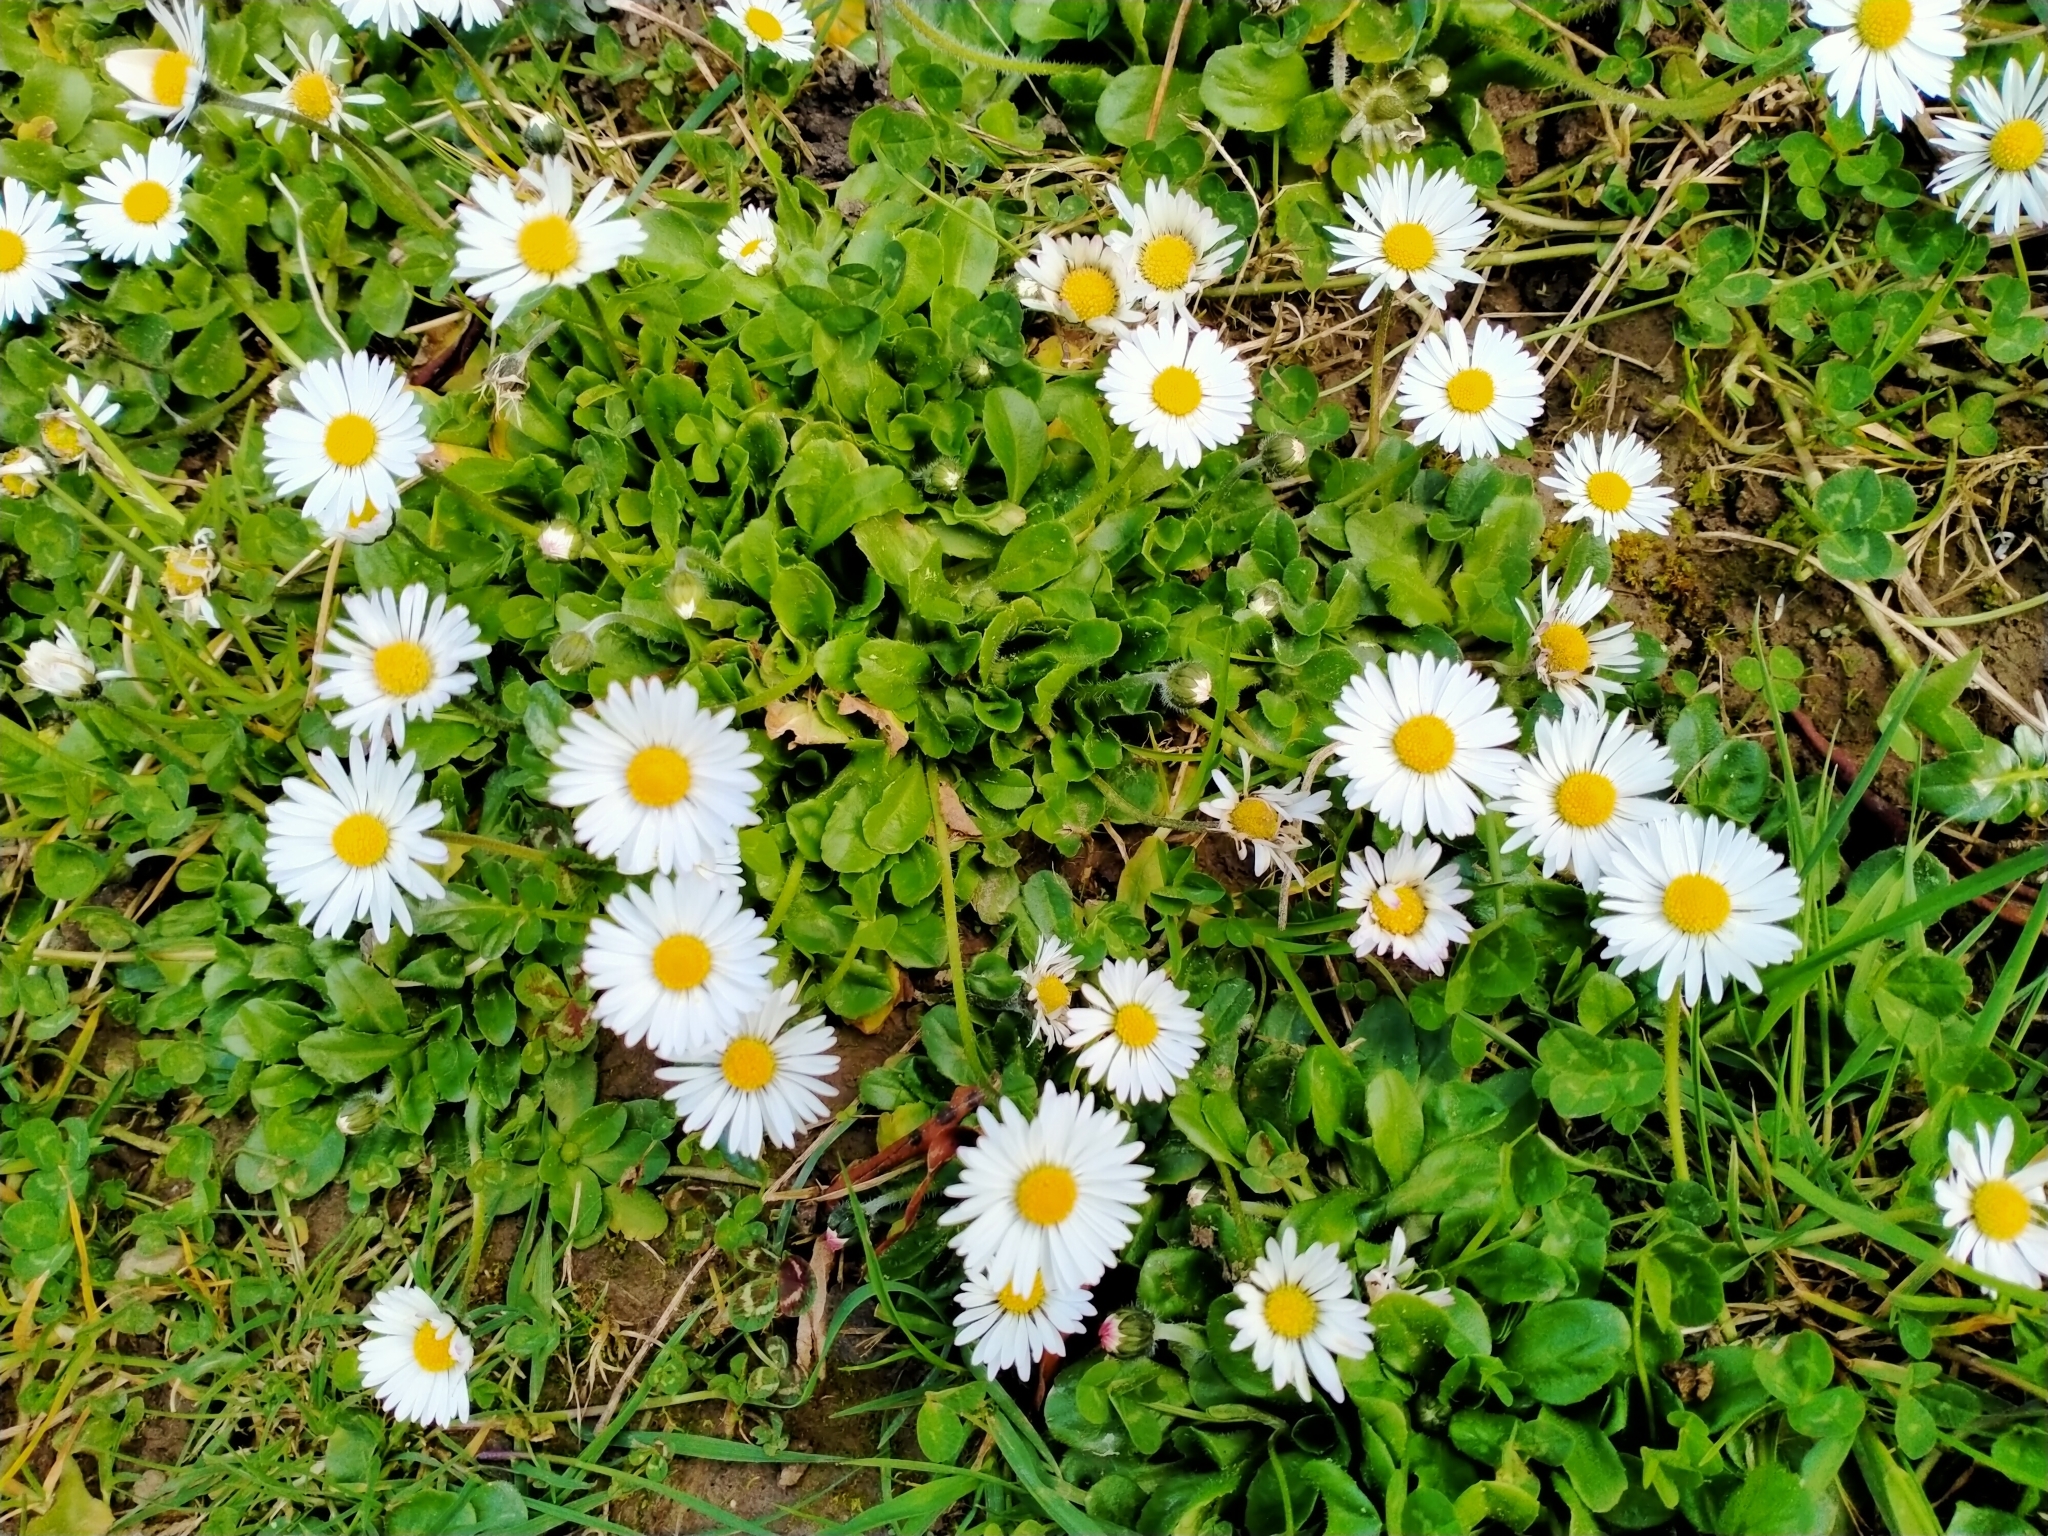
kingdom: Plantae
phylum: Tracheophyta
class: Magnoliopsida
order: Asterales
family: Asteraceae
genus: Bellis
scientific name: Bellis perennis
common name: Lawndaisy
